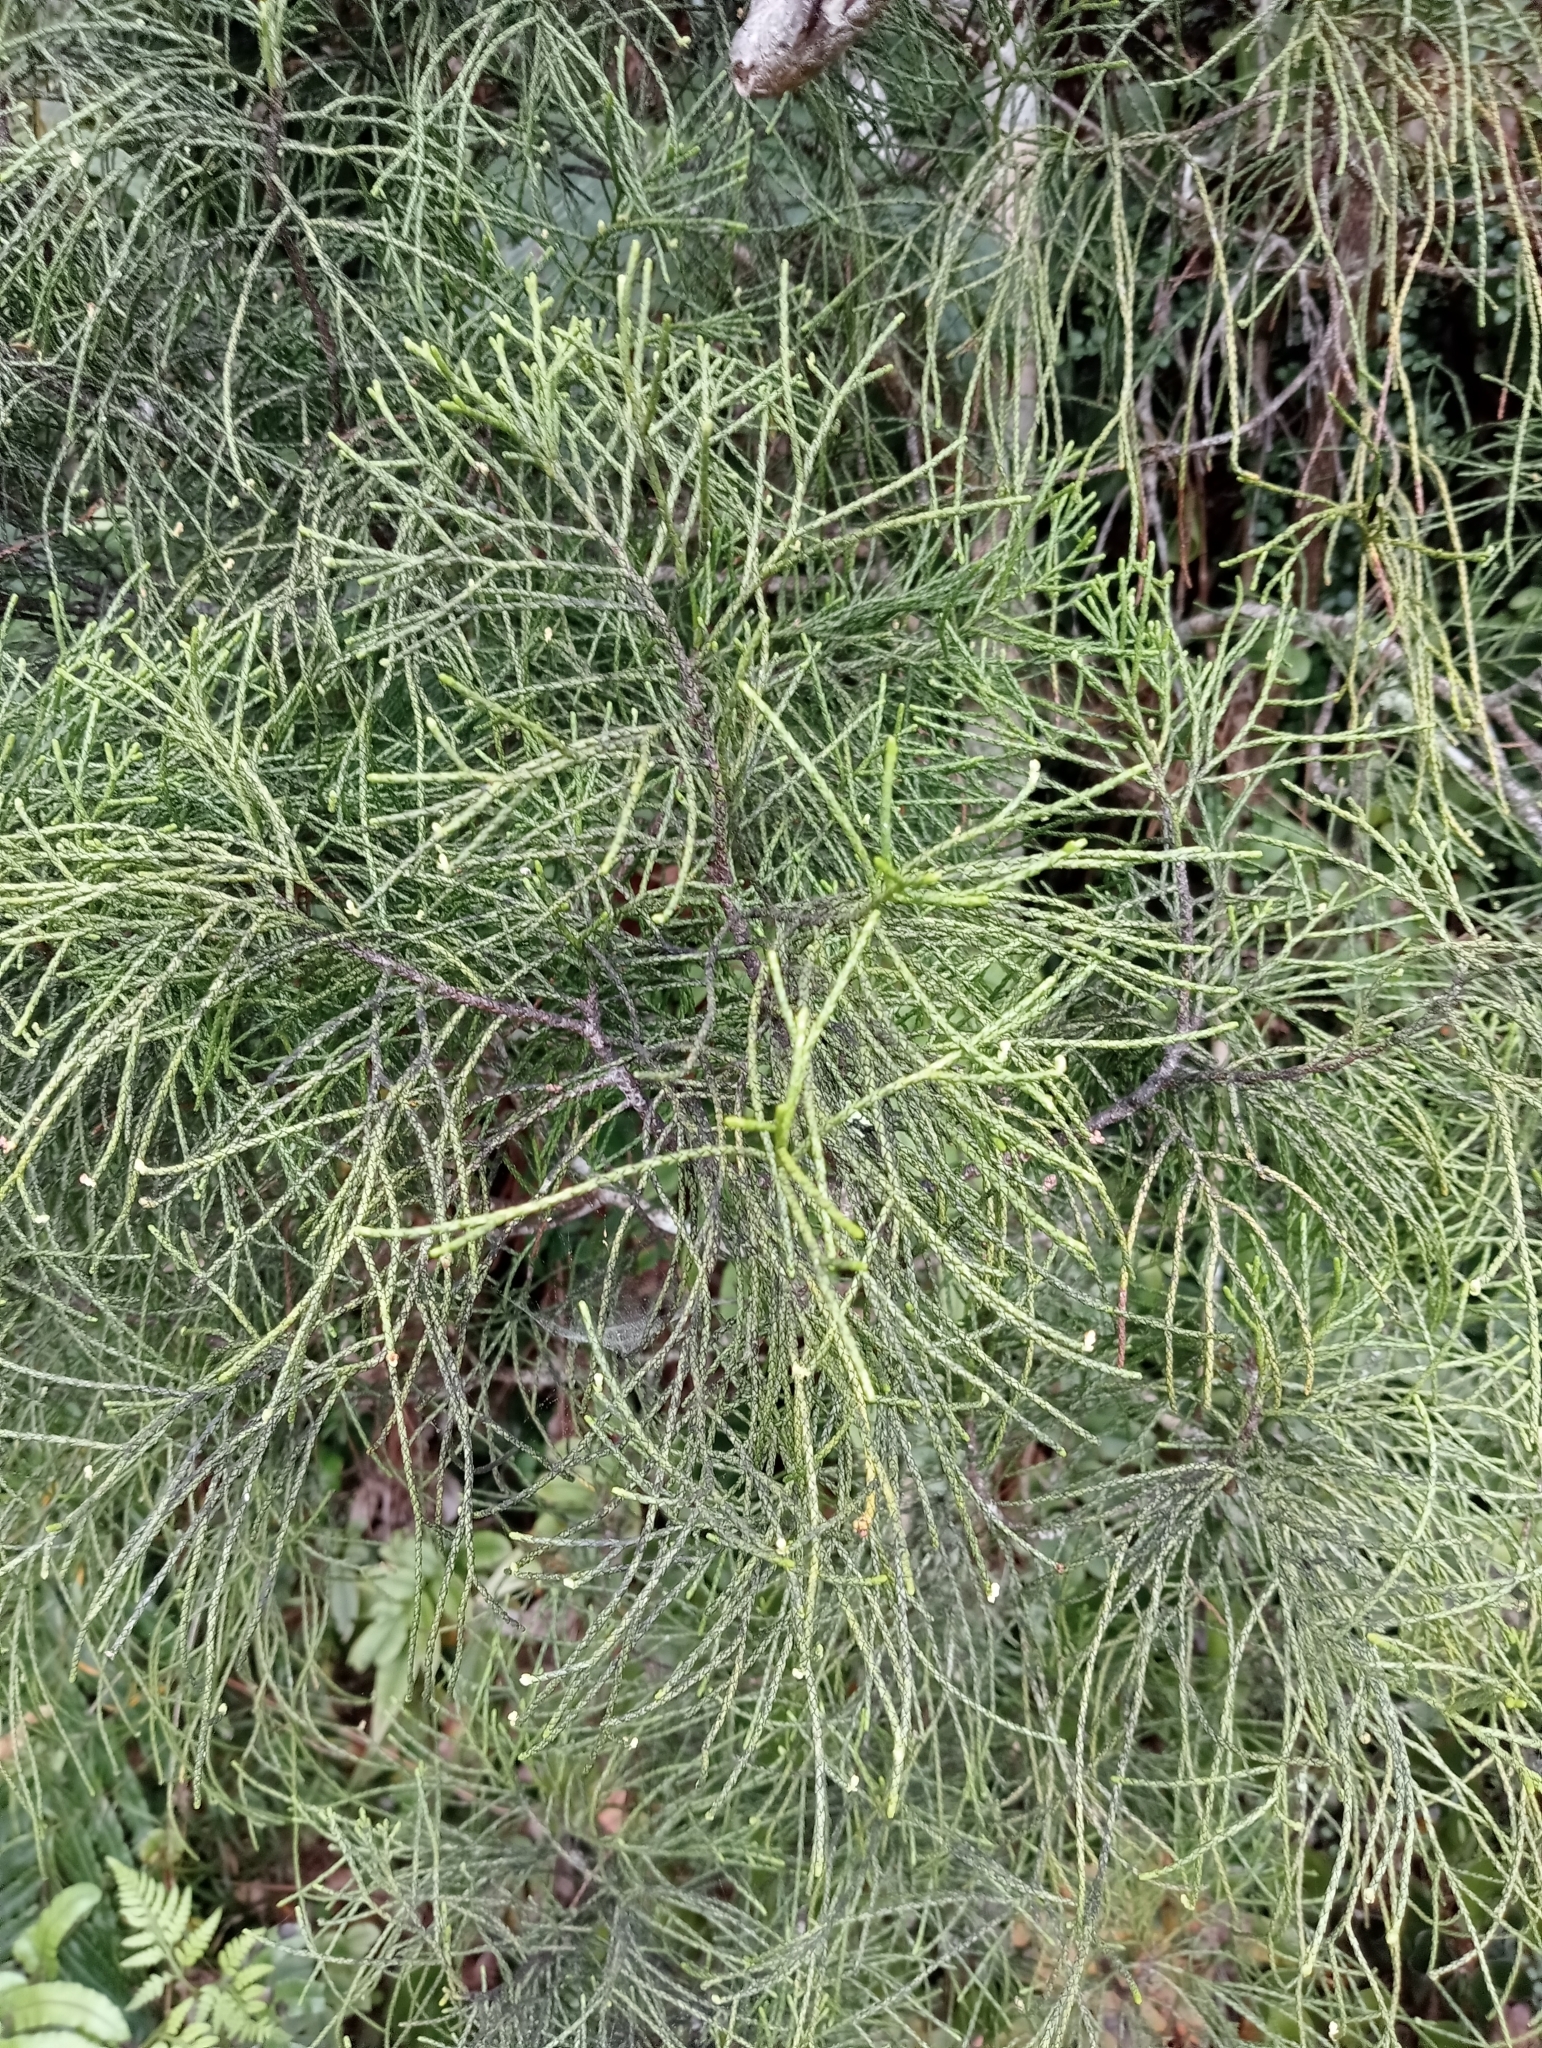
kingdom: Plantae
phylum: Tracheophyta
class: Pinopsida
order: Pinales
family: Podocarpaceae
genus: Manoao
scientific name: Manoao colensoi
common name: Silver pine
